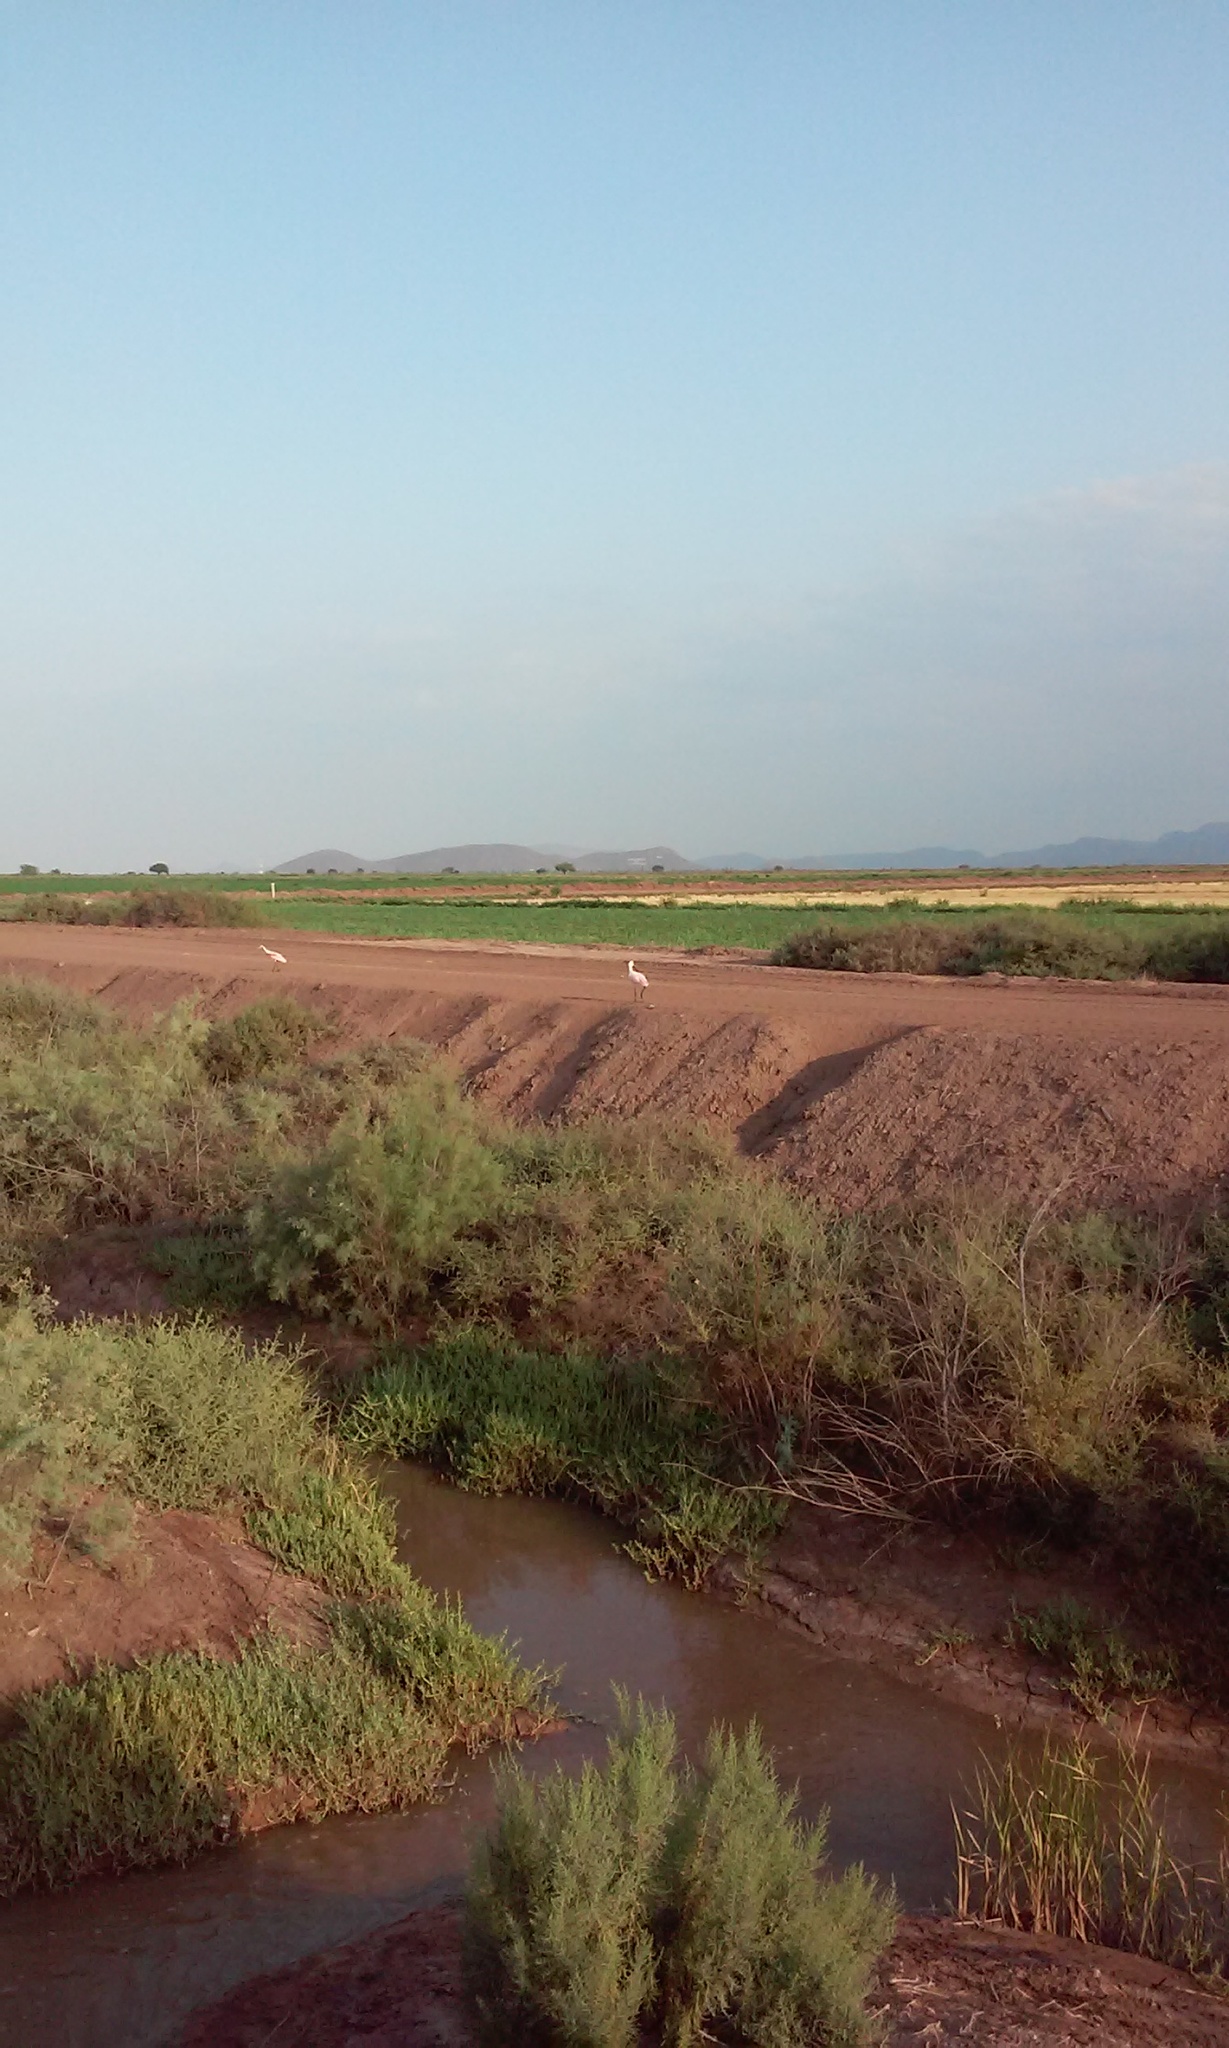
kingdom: Animalia
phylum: Chordata
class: Aves
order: Pelecaniformes
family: Threskiornithidae
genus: Platalea
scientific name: Platalea ajaja
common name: Roseate spoonbill
